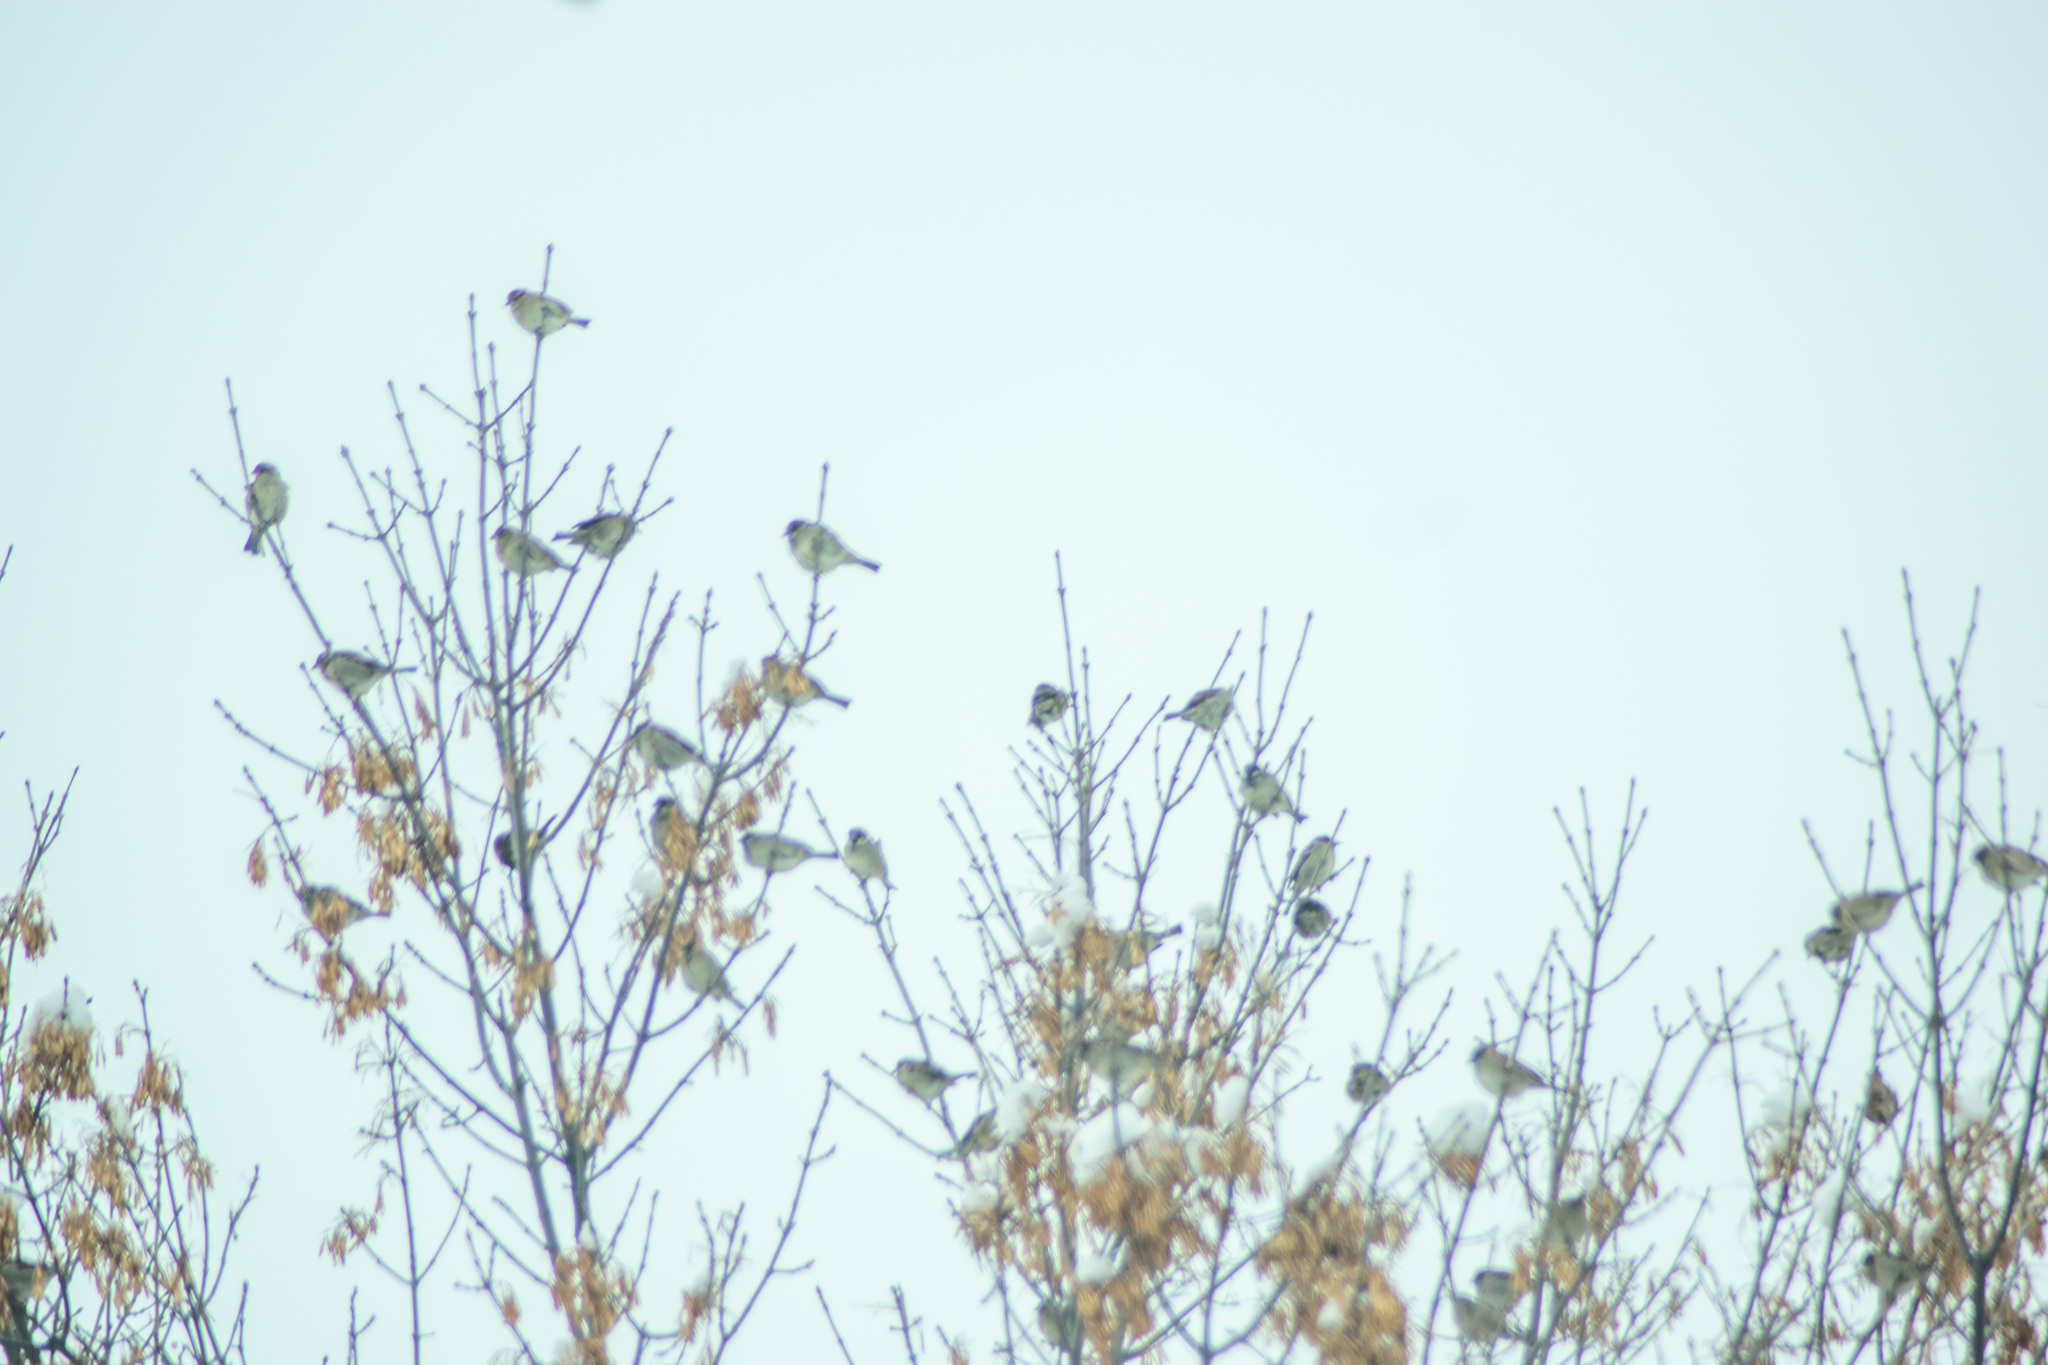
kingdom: Animalia
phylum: Chordata
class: Aves
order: Passeriformes
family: Passeridae
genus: Passer
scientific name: Passer domesticus
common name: House sparrow
